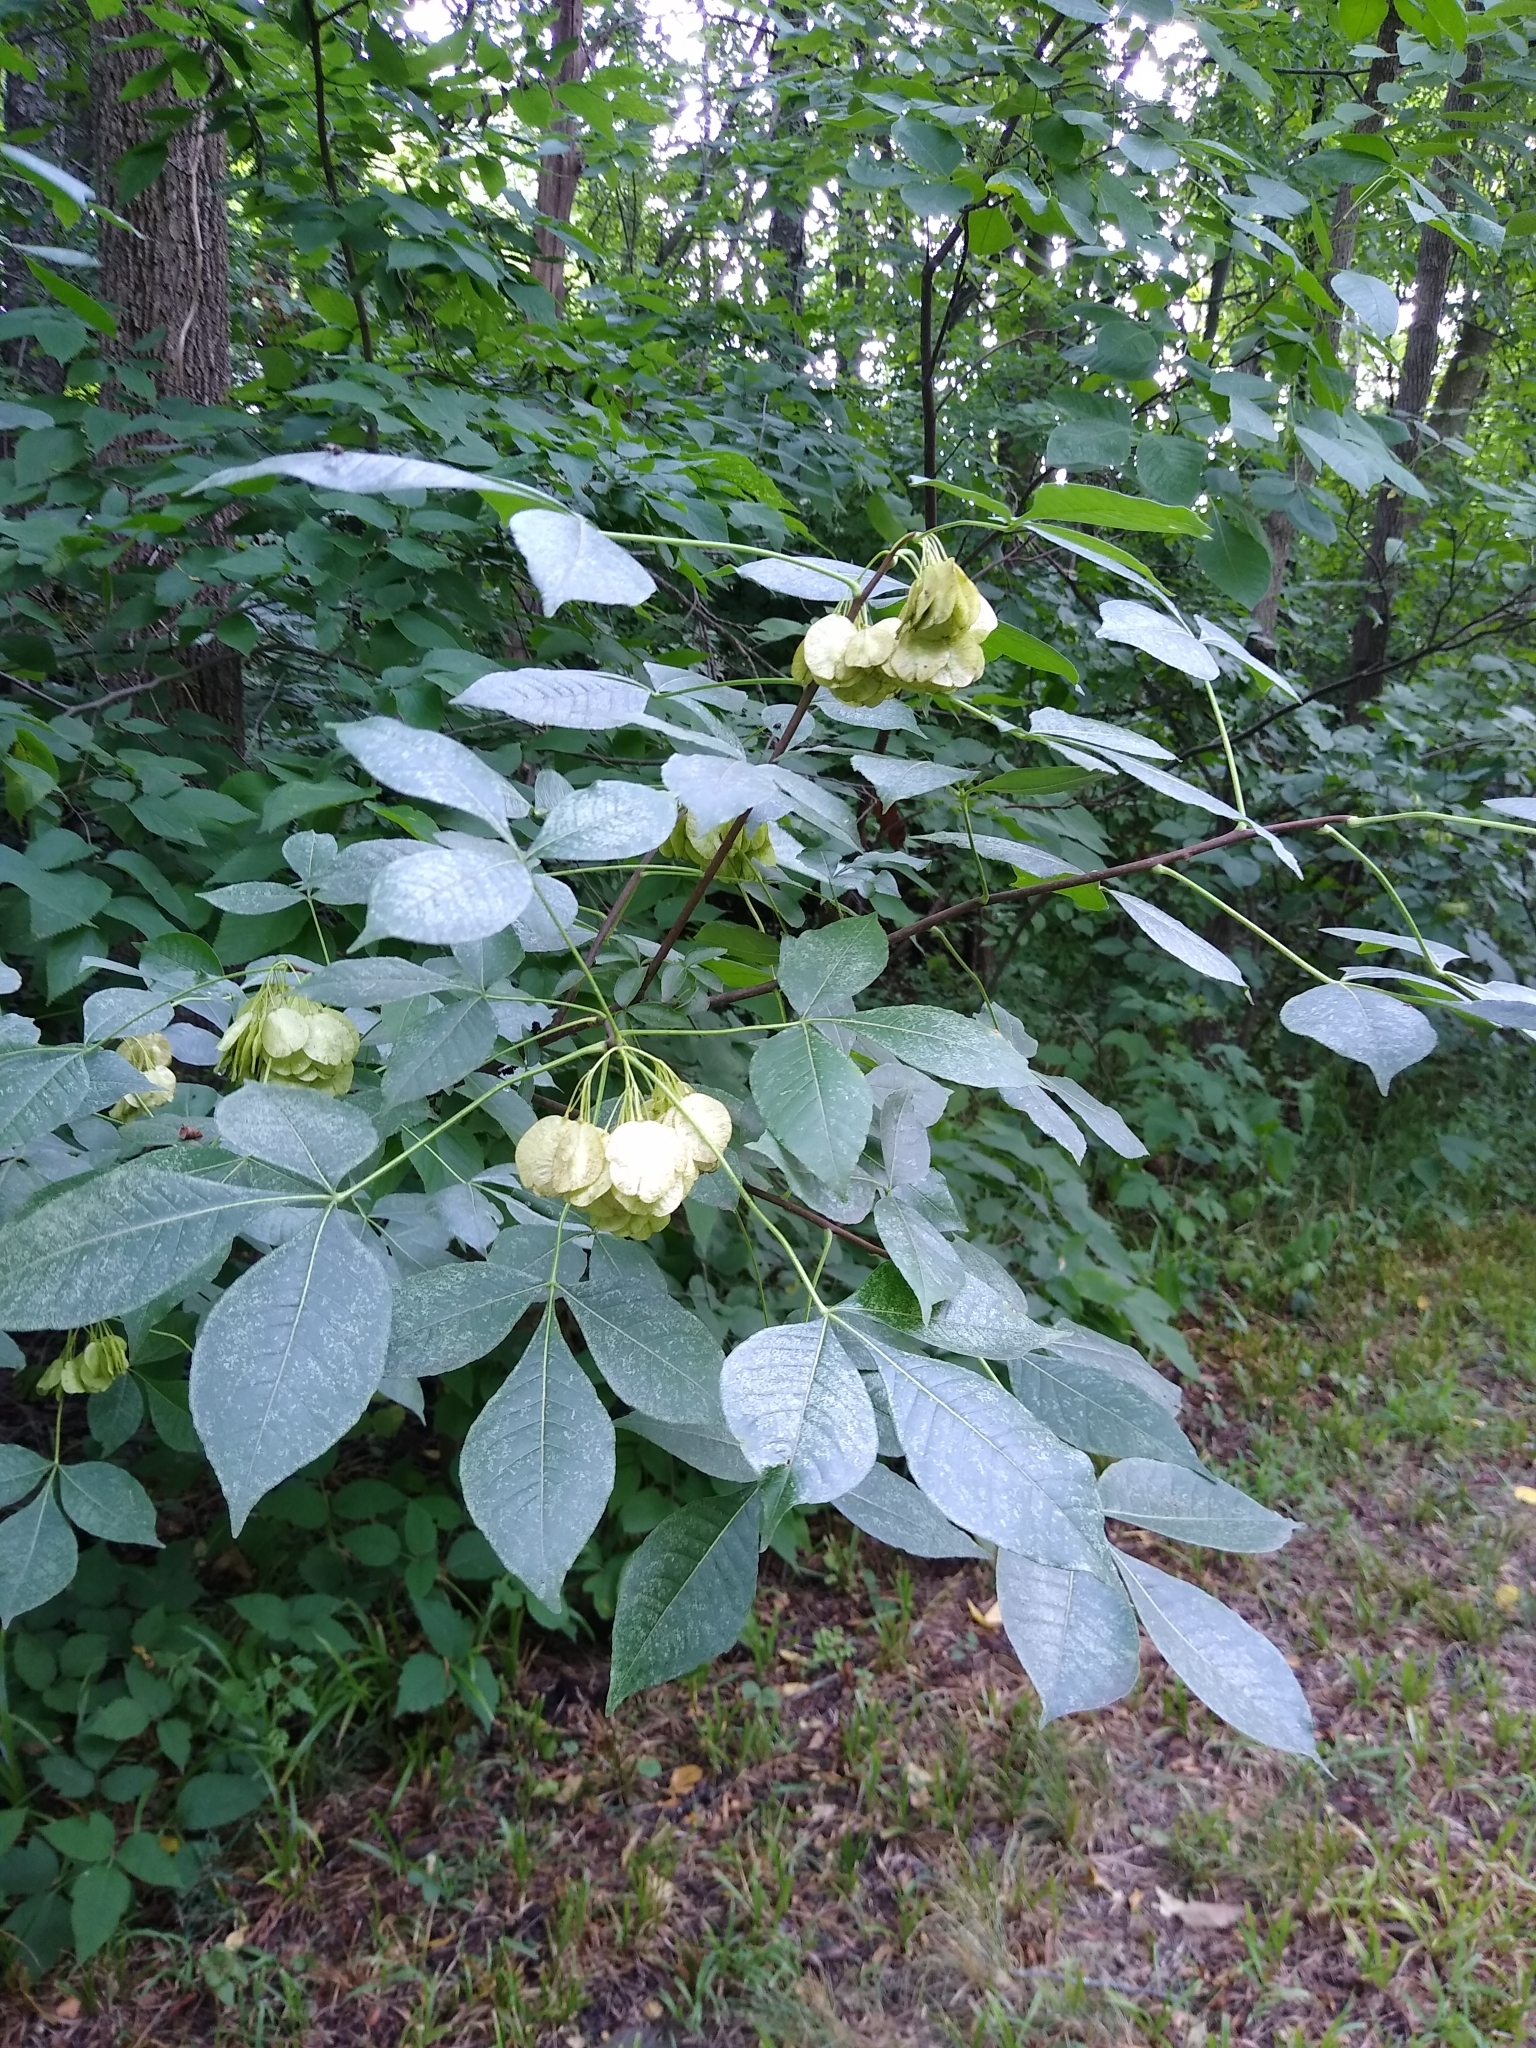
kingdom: Plantae
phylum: Tracheophyta
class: Magnoliopsida
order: Sapindales
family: Rutaceae
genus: Ptelea
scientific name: Ptelea trifoliata
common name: Common hop-tree
